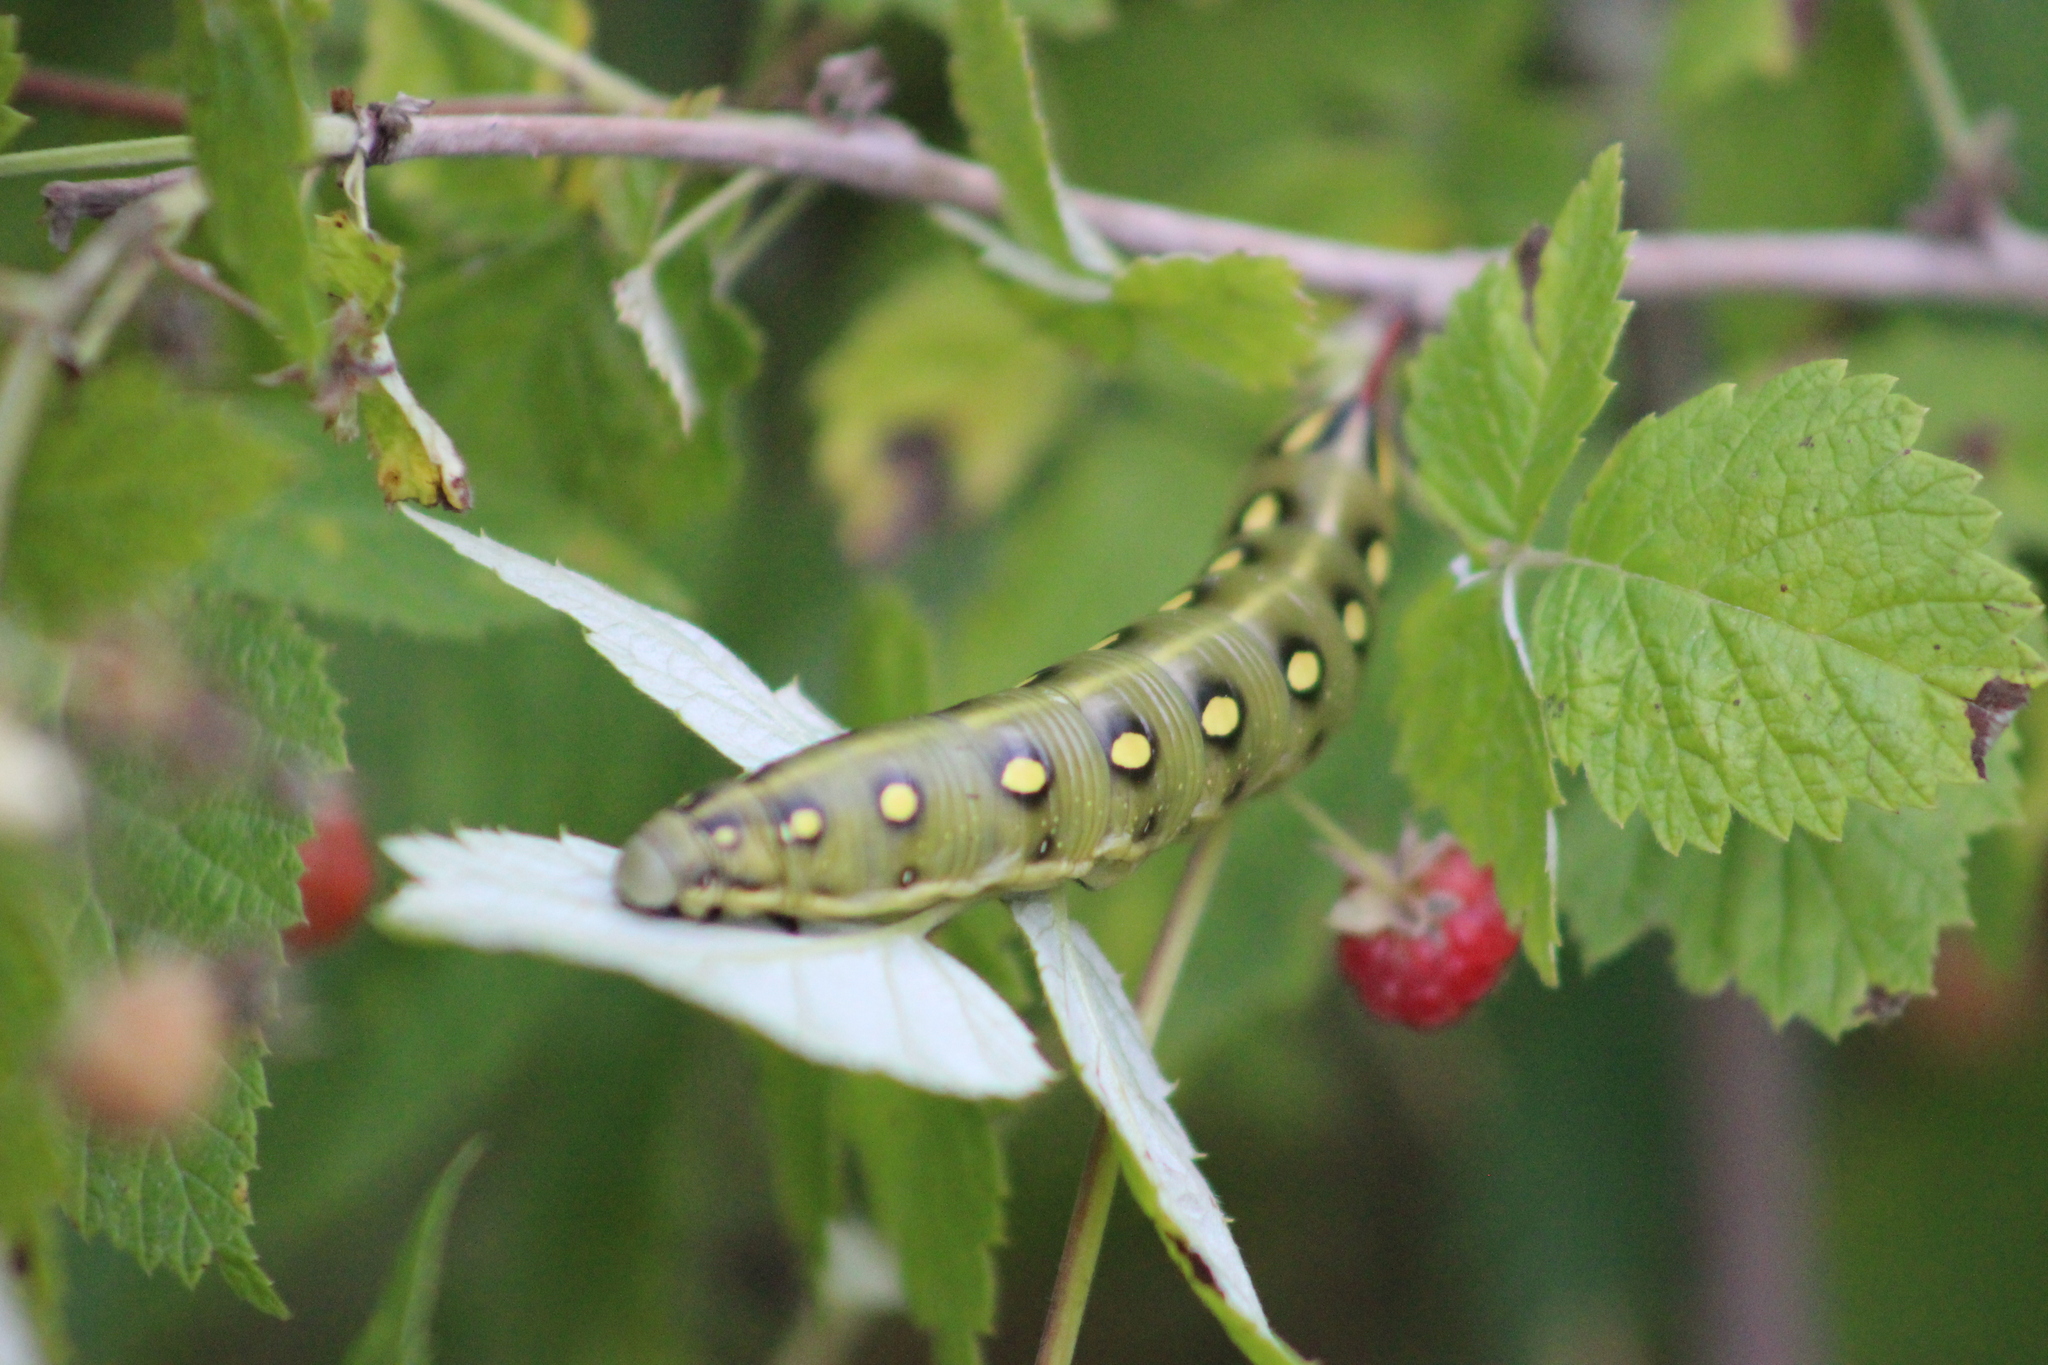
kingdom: Animalia
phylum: Arthropoda
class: Insecta
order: Lepidoptera
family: Sphingidae
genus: Hyles
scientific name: Hyles gallii
